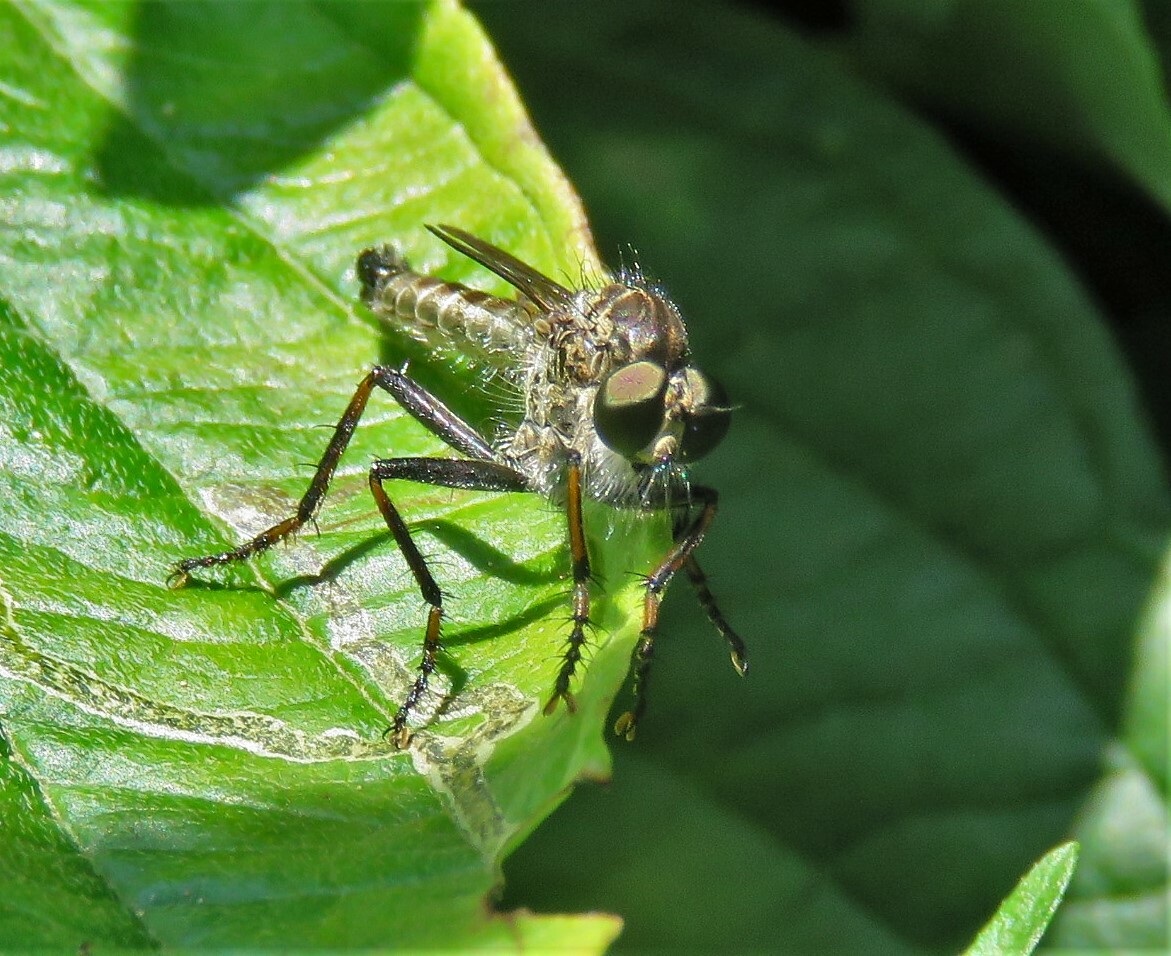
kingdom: Animalia
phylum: Arthropoda
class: Insecta
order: Diptera
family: Asilidae
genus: Machimus
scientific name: Machimus sadyates
